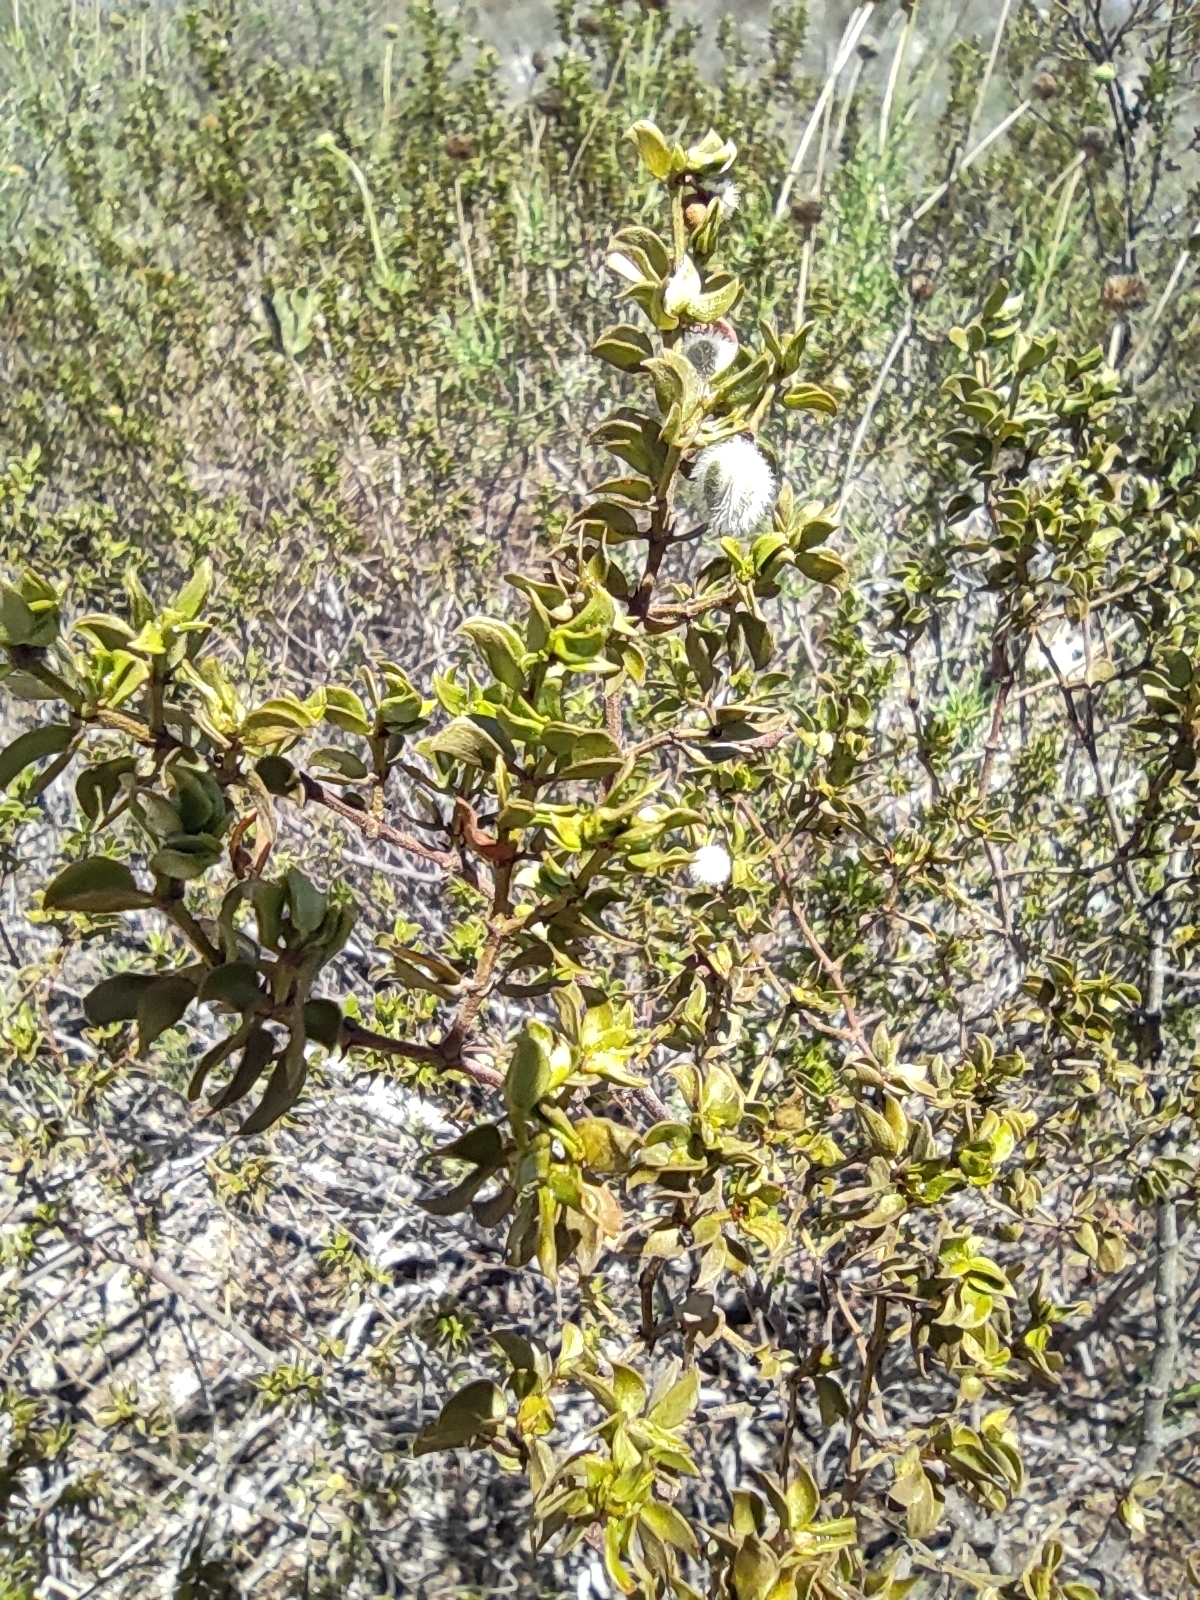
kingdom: Plantae
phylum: Tracheophyta
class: Magnoliopsida
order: Zygophyllales
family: Zygophyllaceae
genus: Larrea
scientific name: Larrea tridentata
